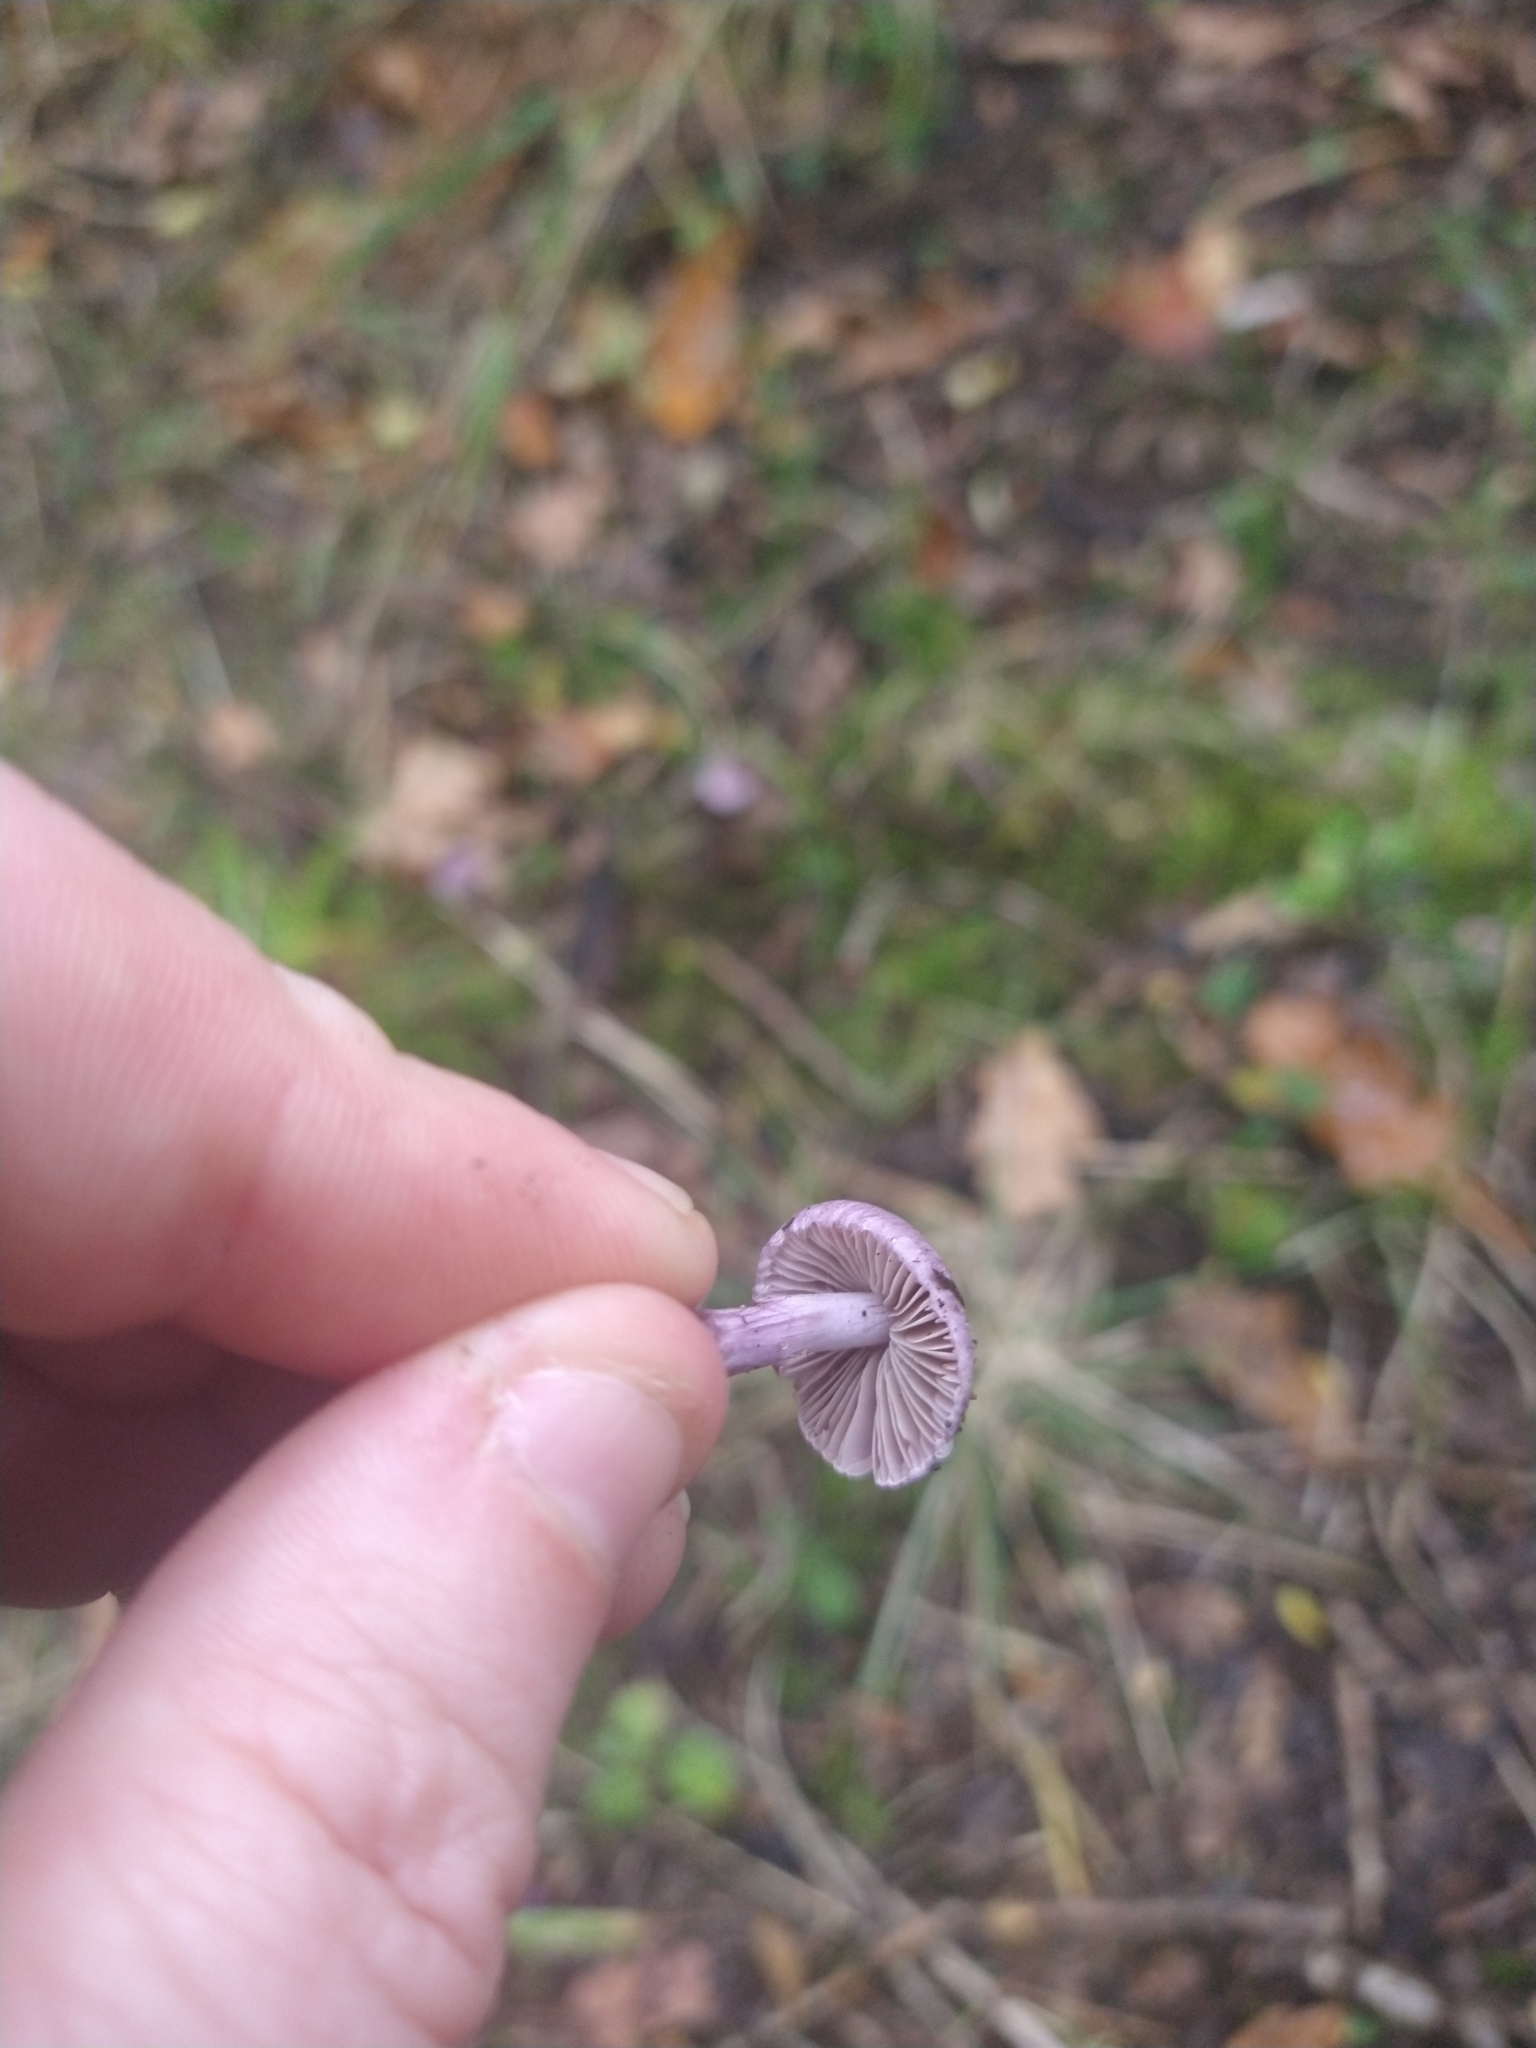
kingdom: Fungi
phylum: Basidiomycota
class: Agaricomycetes
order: Agaricales
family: Inocybaceae
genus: Inocybe
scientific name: Inocybe geophylla
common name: White fibrecap
